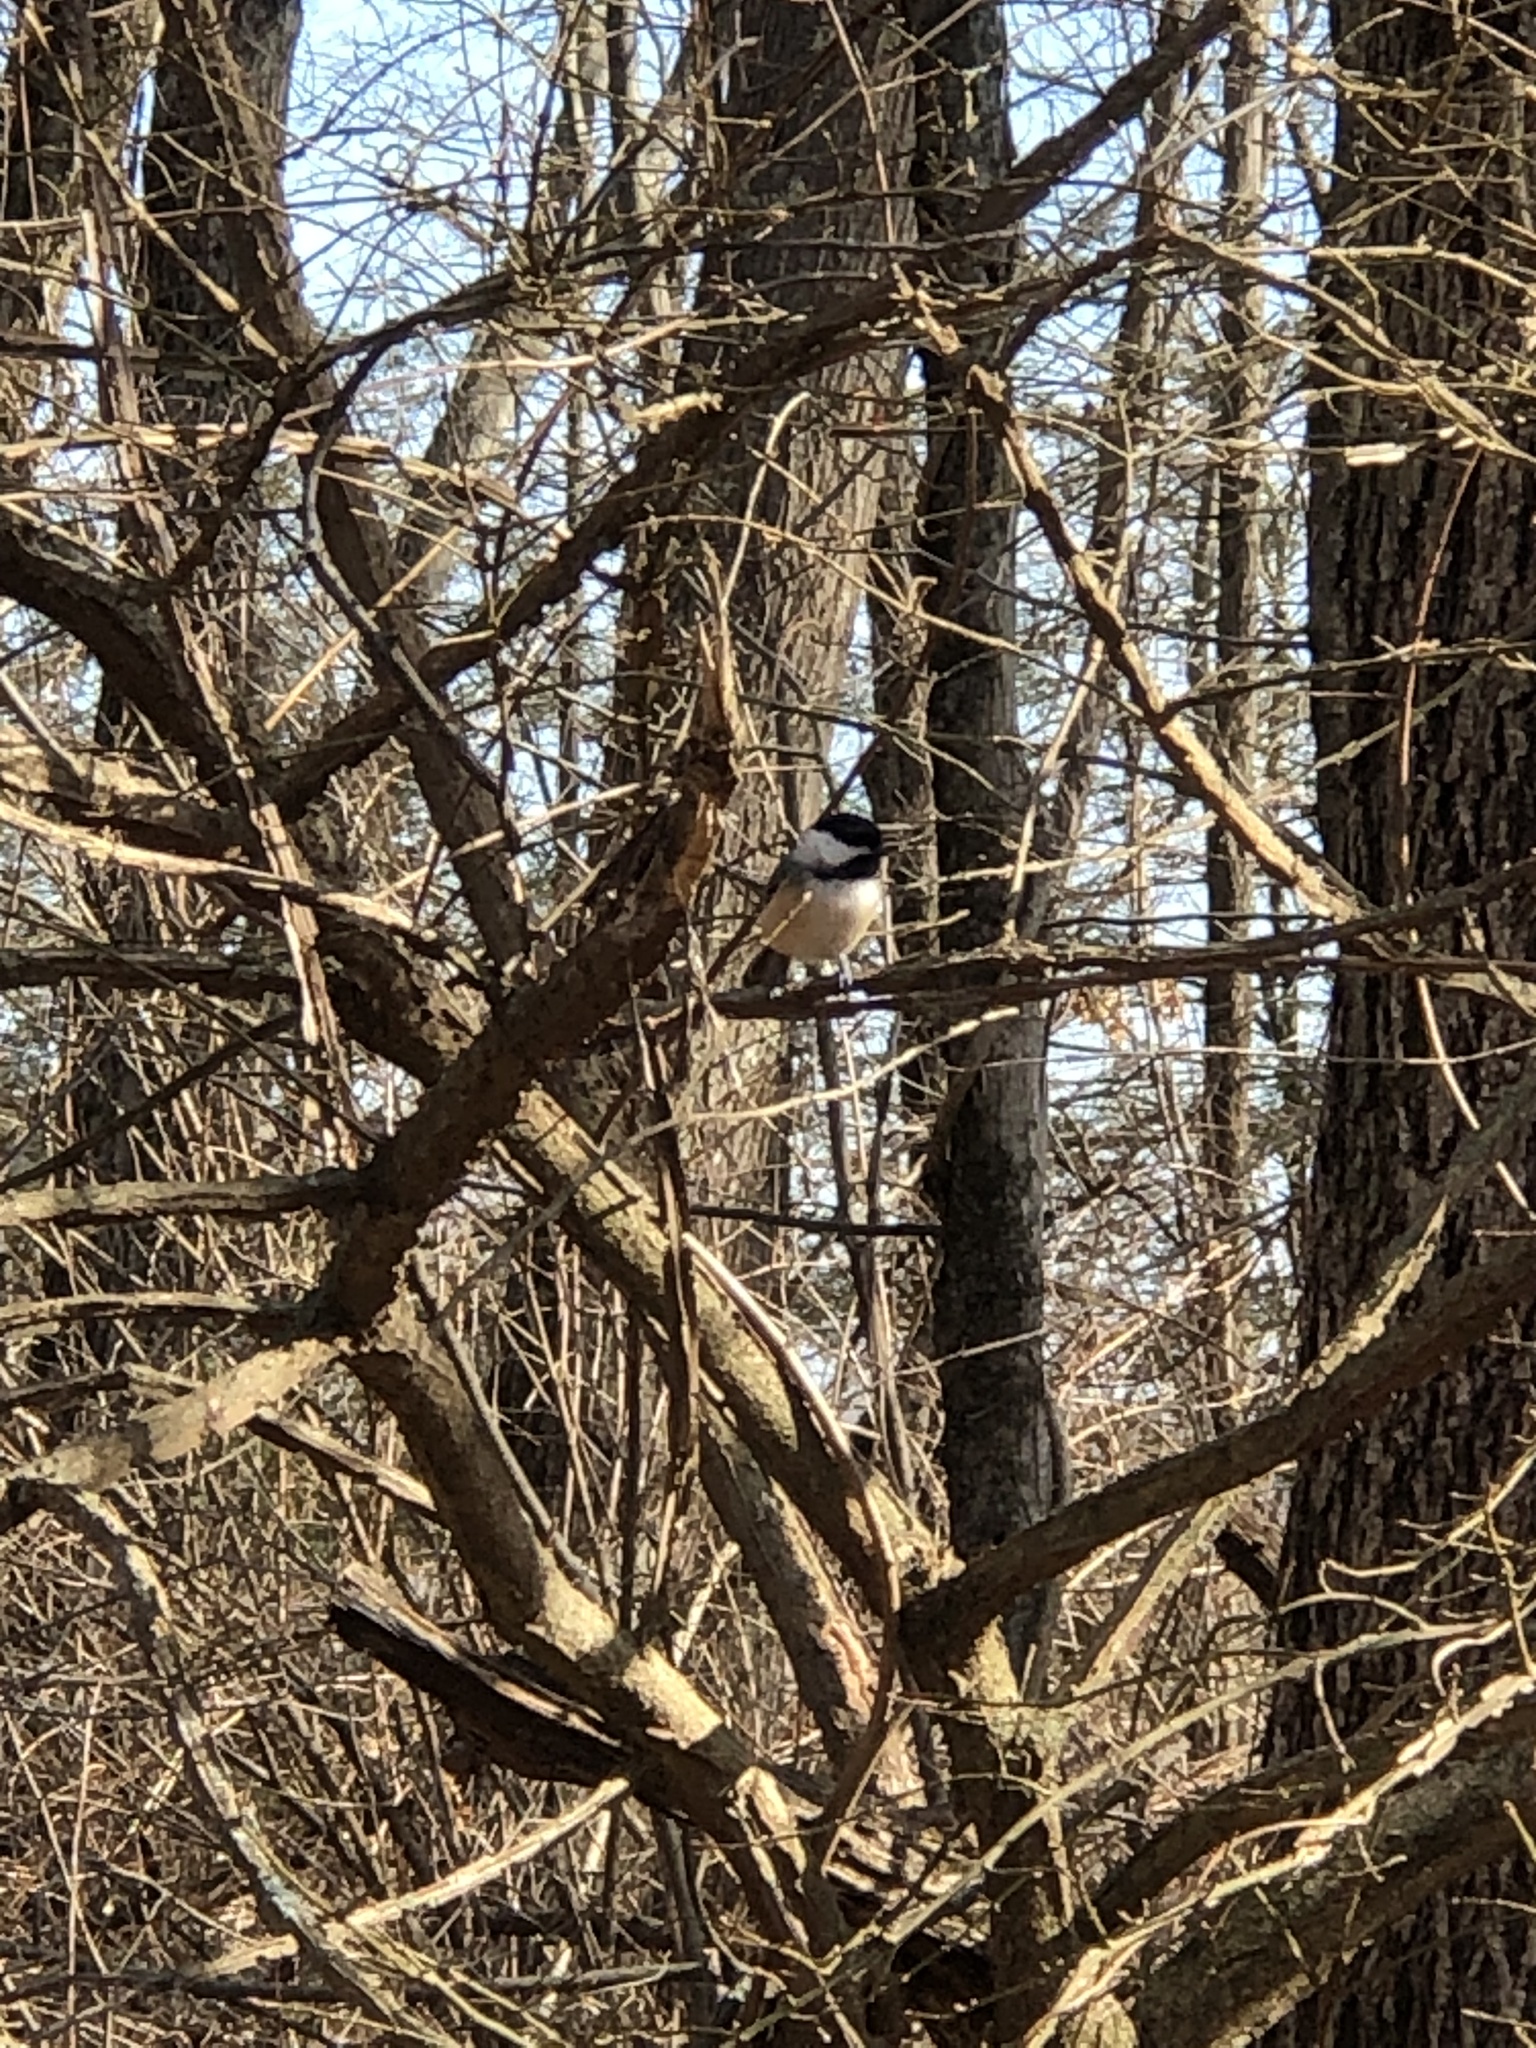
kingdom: Animalia
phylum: Chordata
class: Aves
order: Passeriformes
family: Paridae
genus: Poecile
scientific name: Poecile atricapillus
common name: Black-capped chickadee
